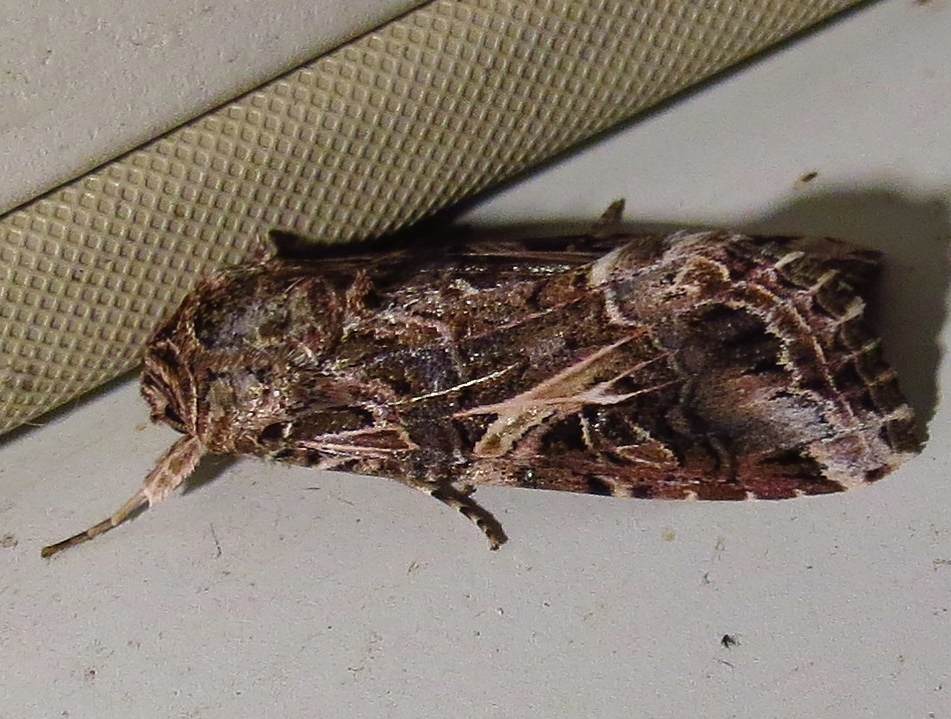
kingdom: Animalia
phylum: Arthropoda
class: Insecta
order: Lepidoptera
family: Noctuidae
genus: Spodoptera
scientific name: Spodoptera ornithogalli
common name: Yellow-striped armyworm
